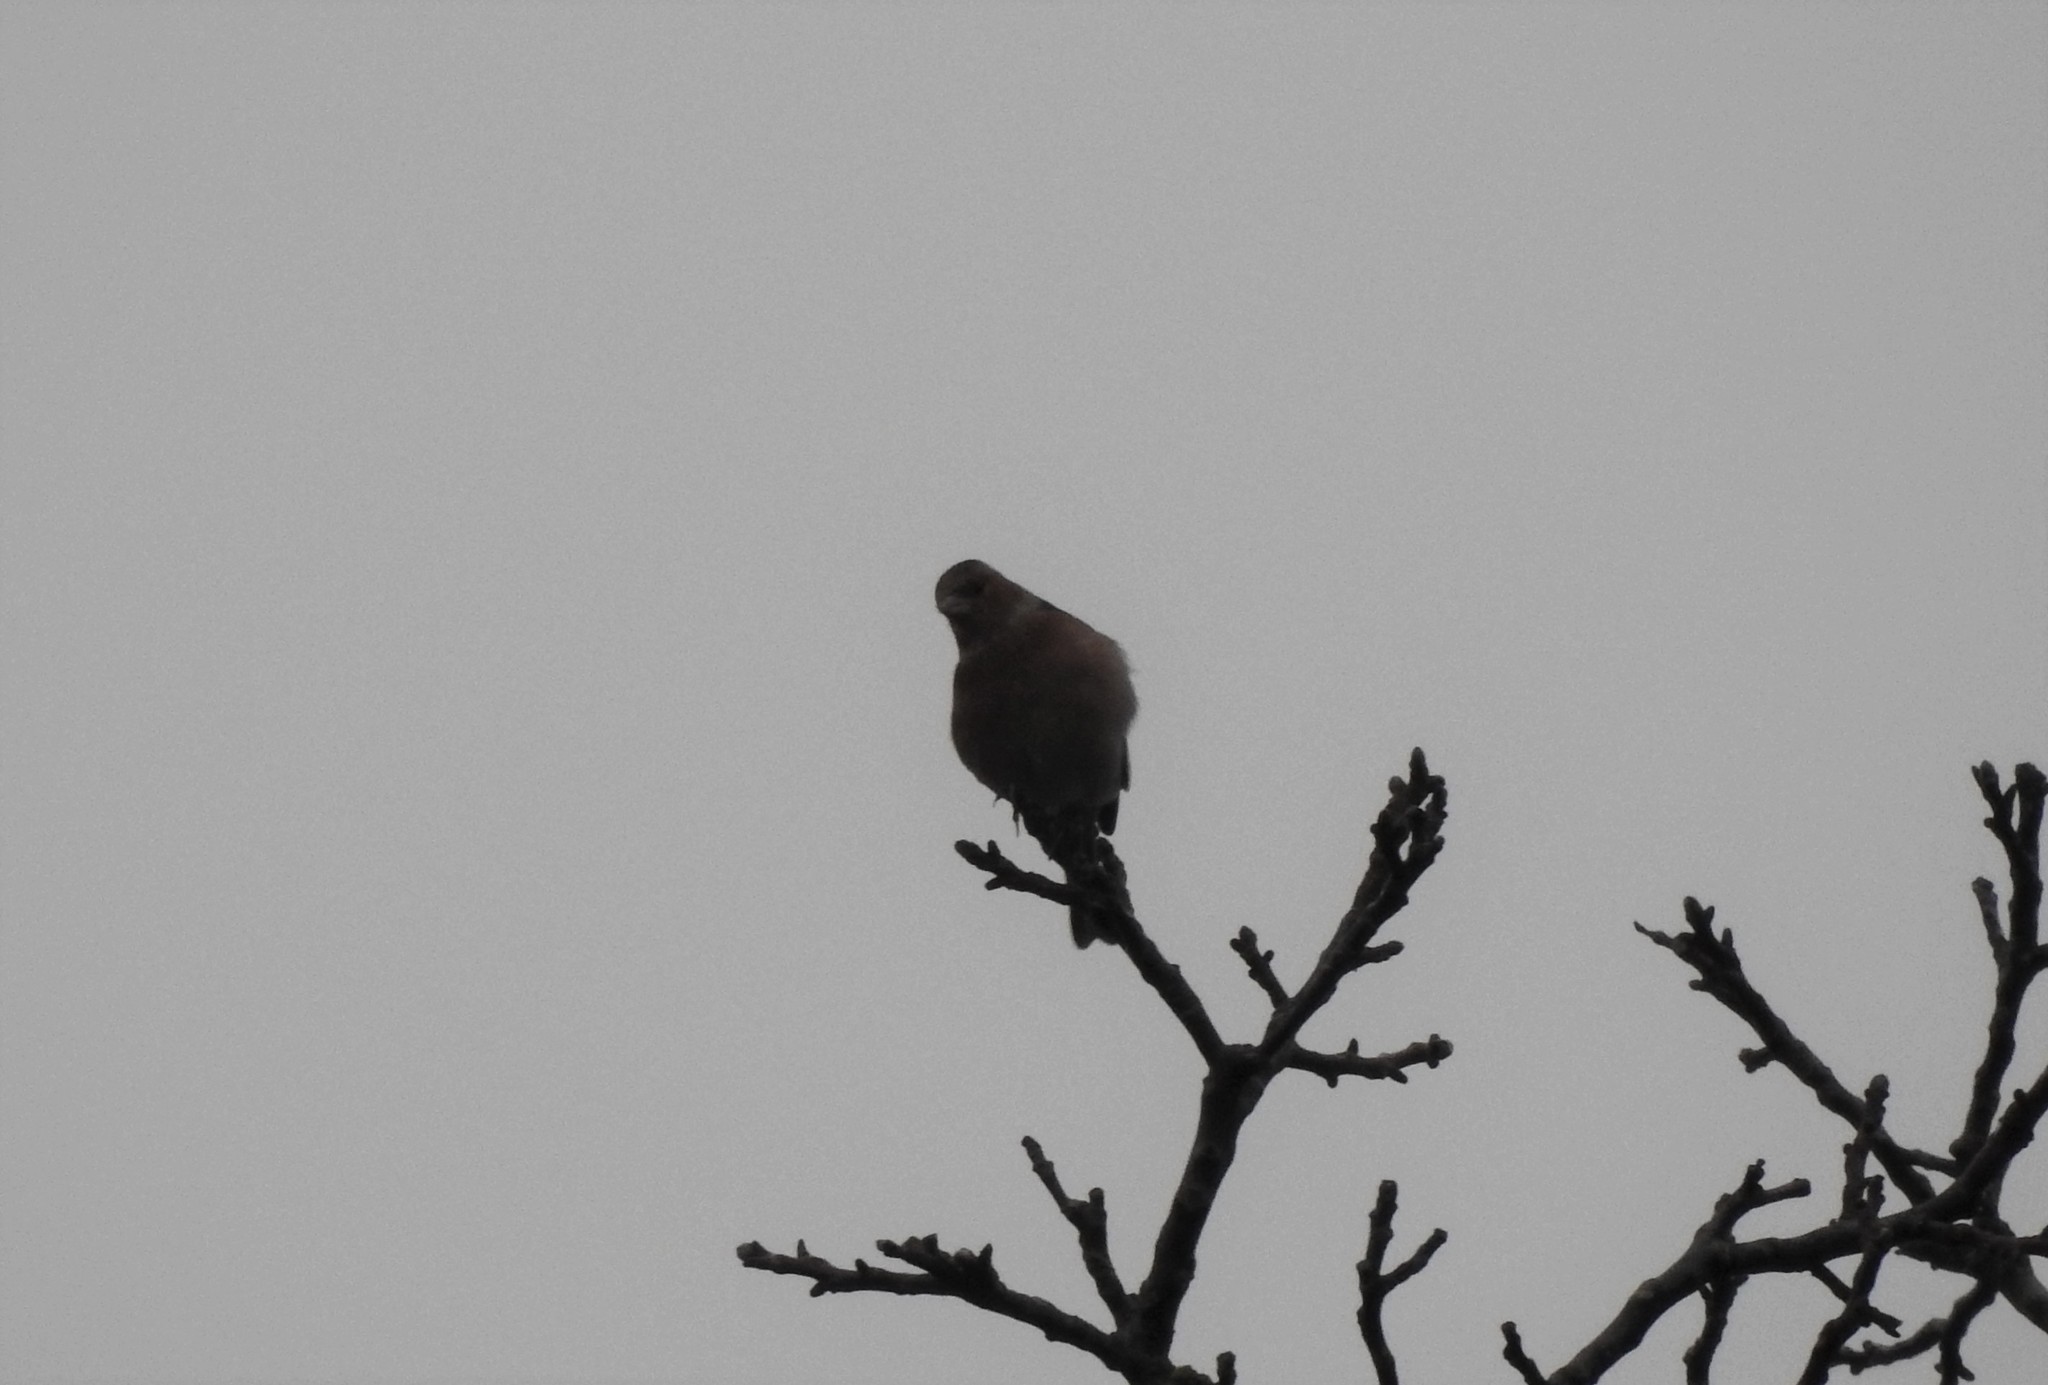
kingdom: Animalia
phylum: Chordata
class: Aves
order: Passeriformes
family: Fringillidae
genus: Fringilla
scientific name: Fringilla coelebs
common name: Common chaffinch
